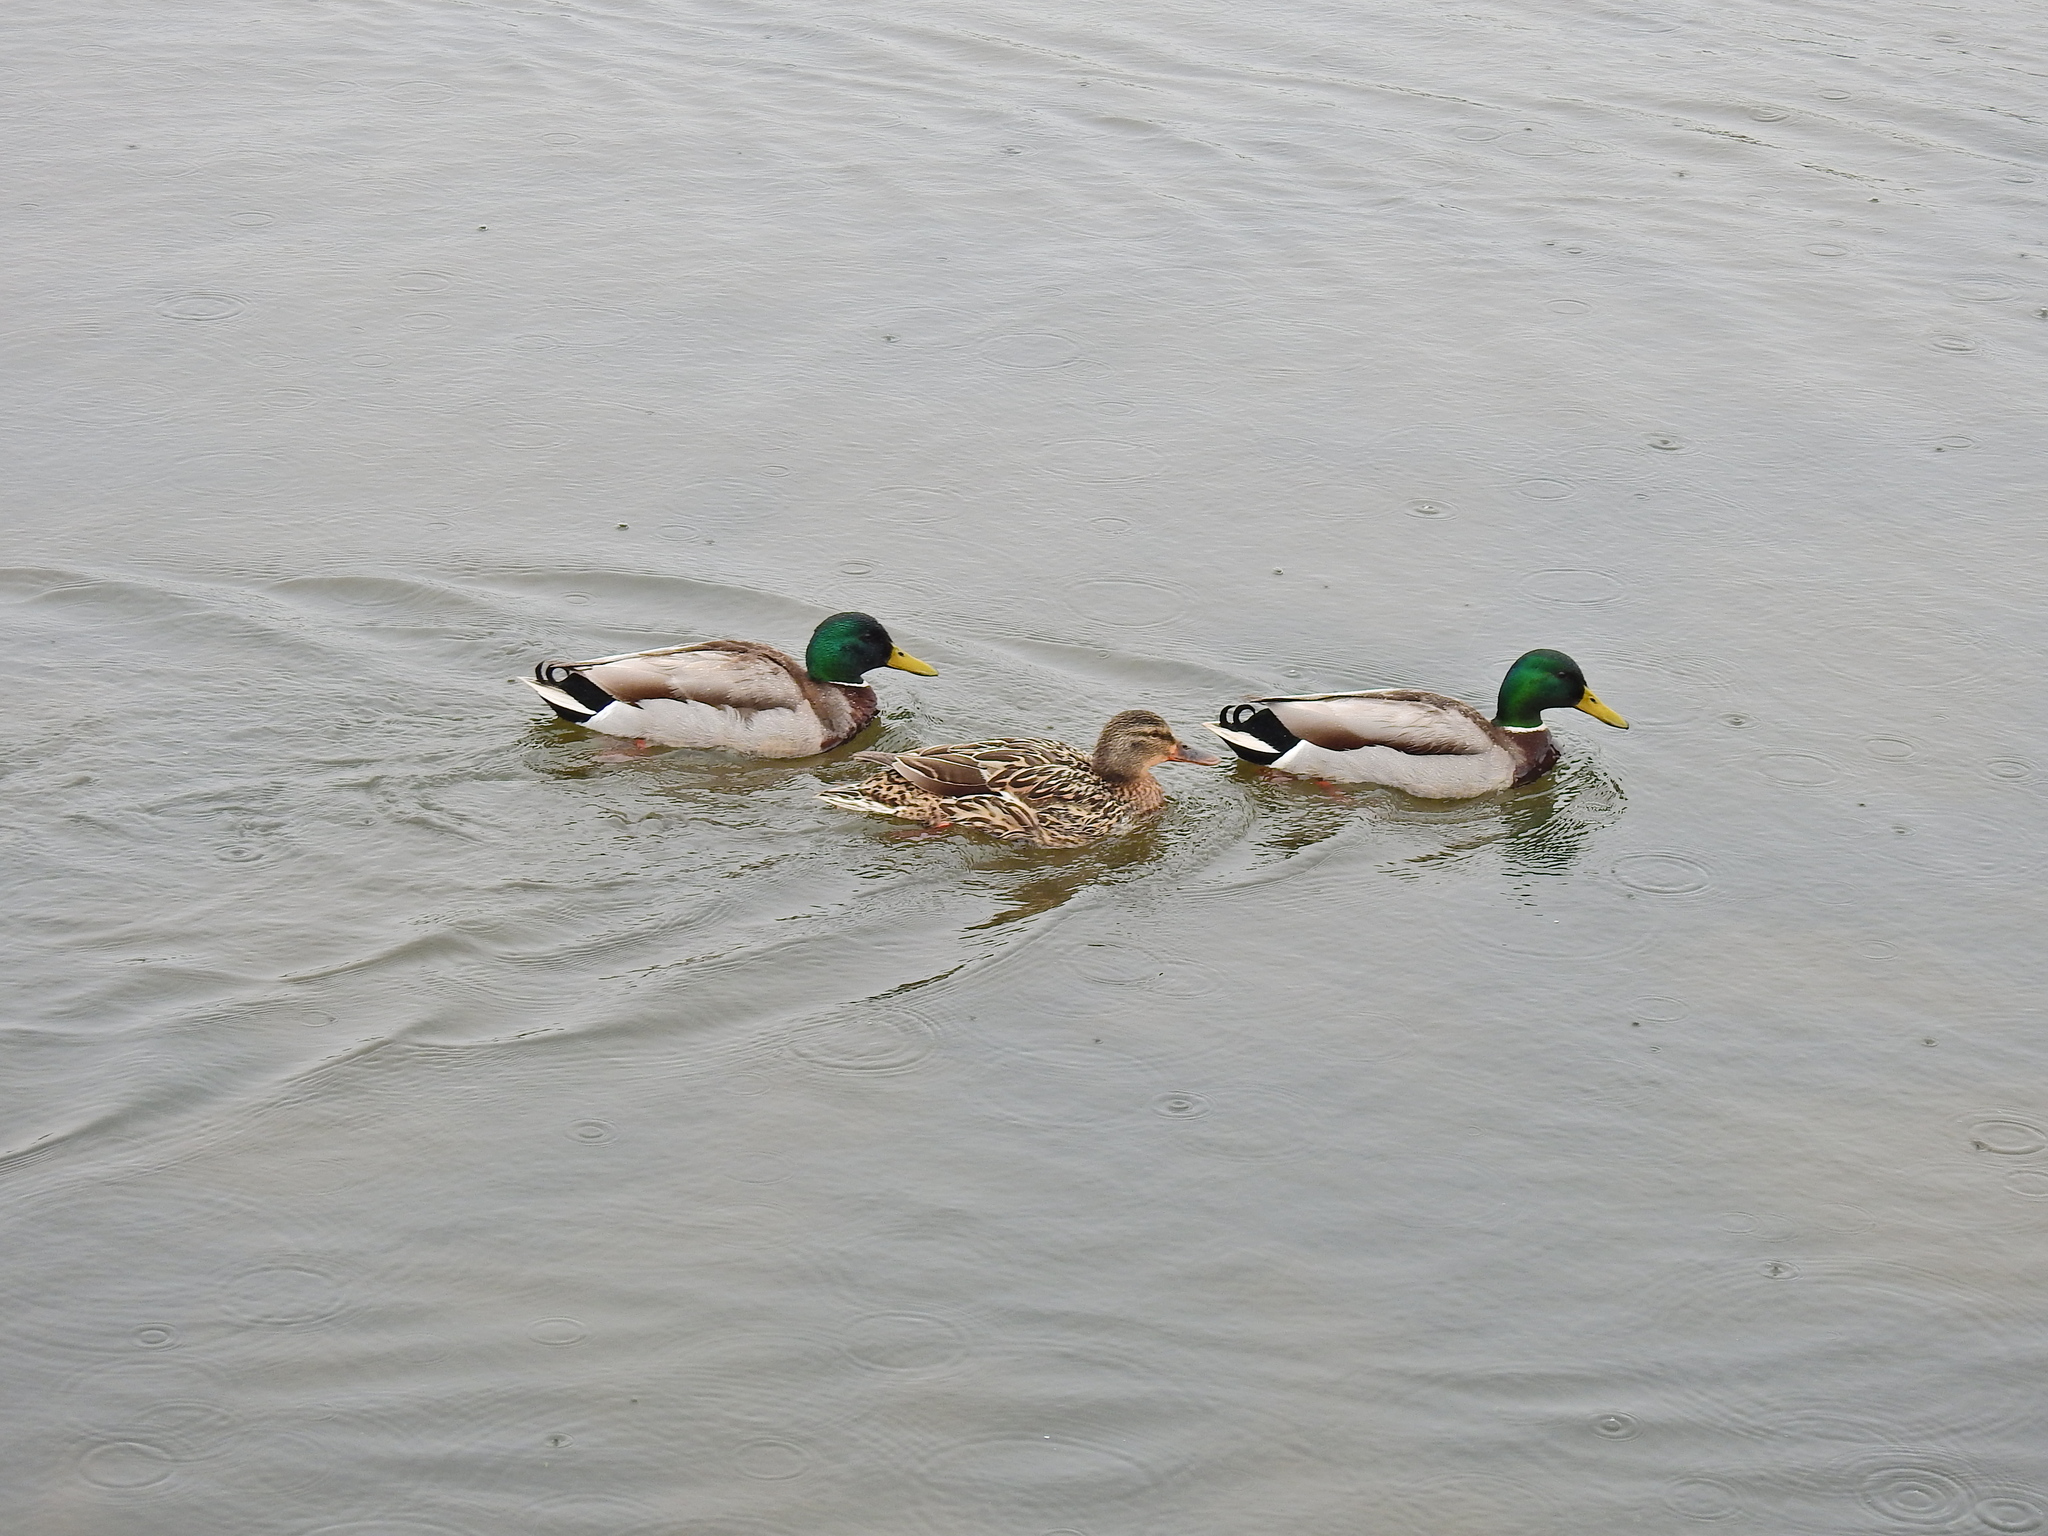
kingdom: Animalia
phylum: Chordata
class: Aves
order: Anseriformes
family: Anatidae
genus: Anas
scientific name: Anas platyrhynchos
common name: Mallard
